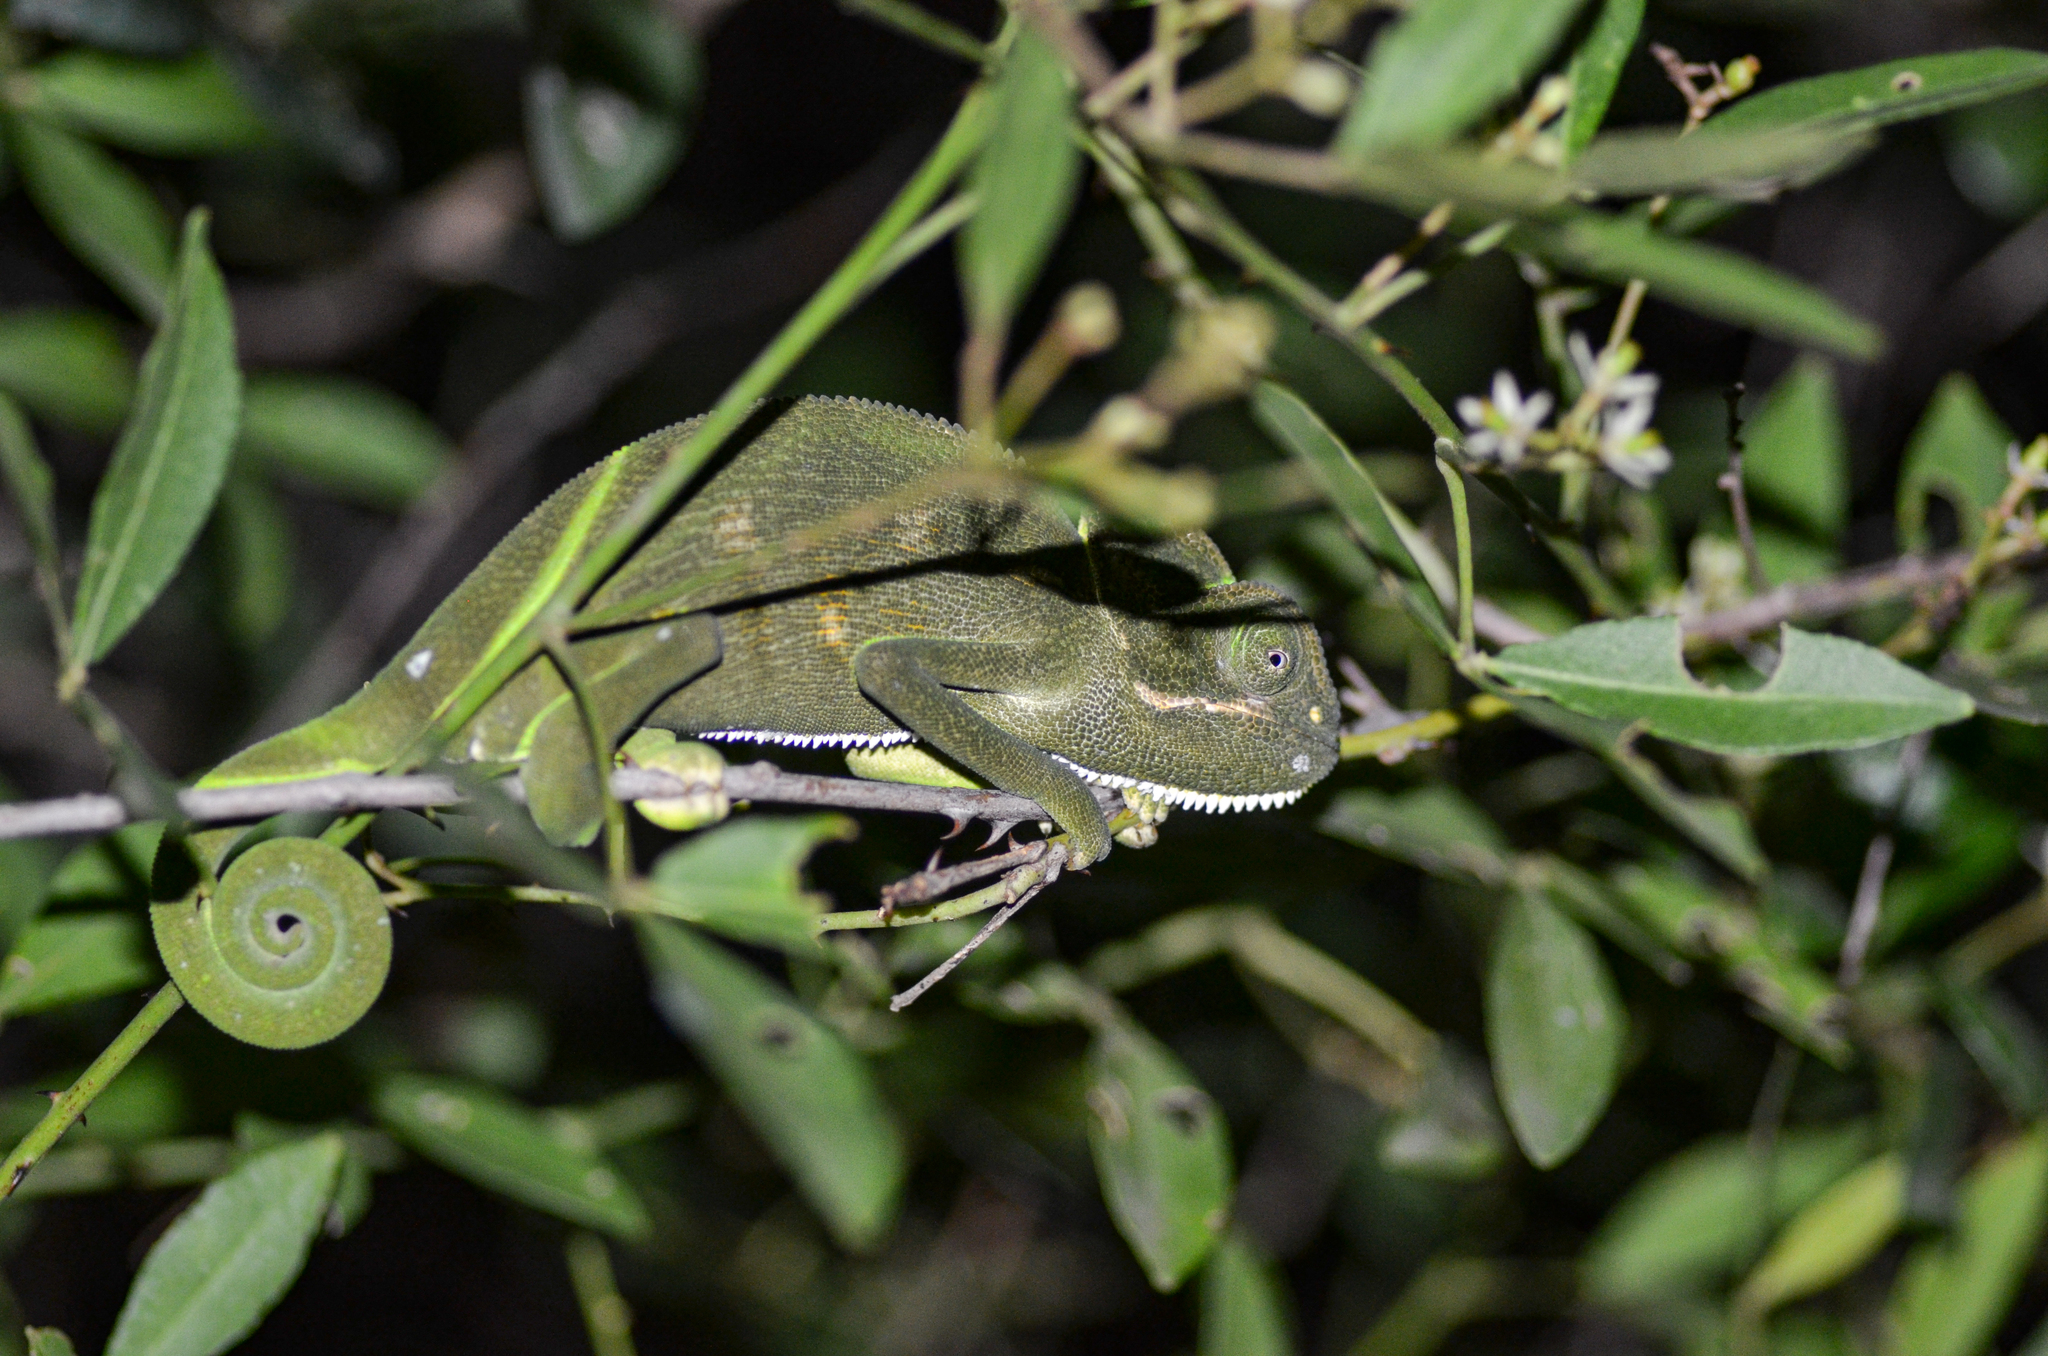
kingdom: Animalia
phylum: Chordata
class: Squamata
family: Chamaeleonidae
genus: Chamaeleo
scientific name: Chamaeleo zeylanicus
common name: Indian chameleon
